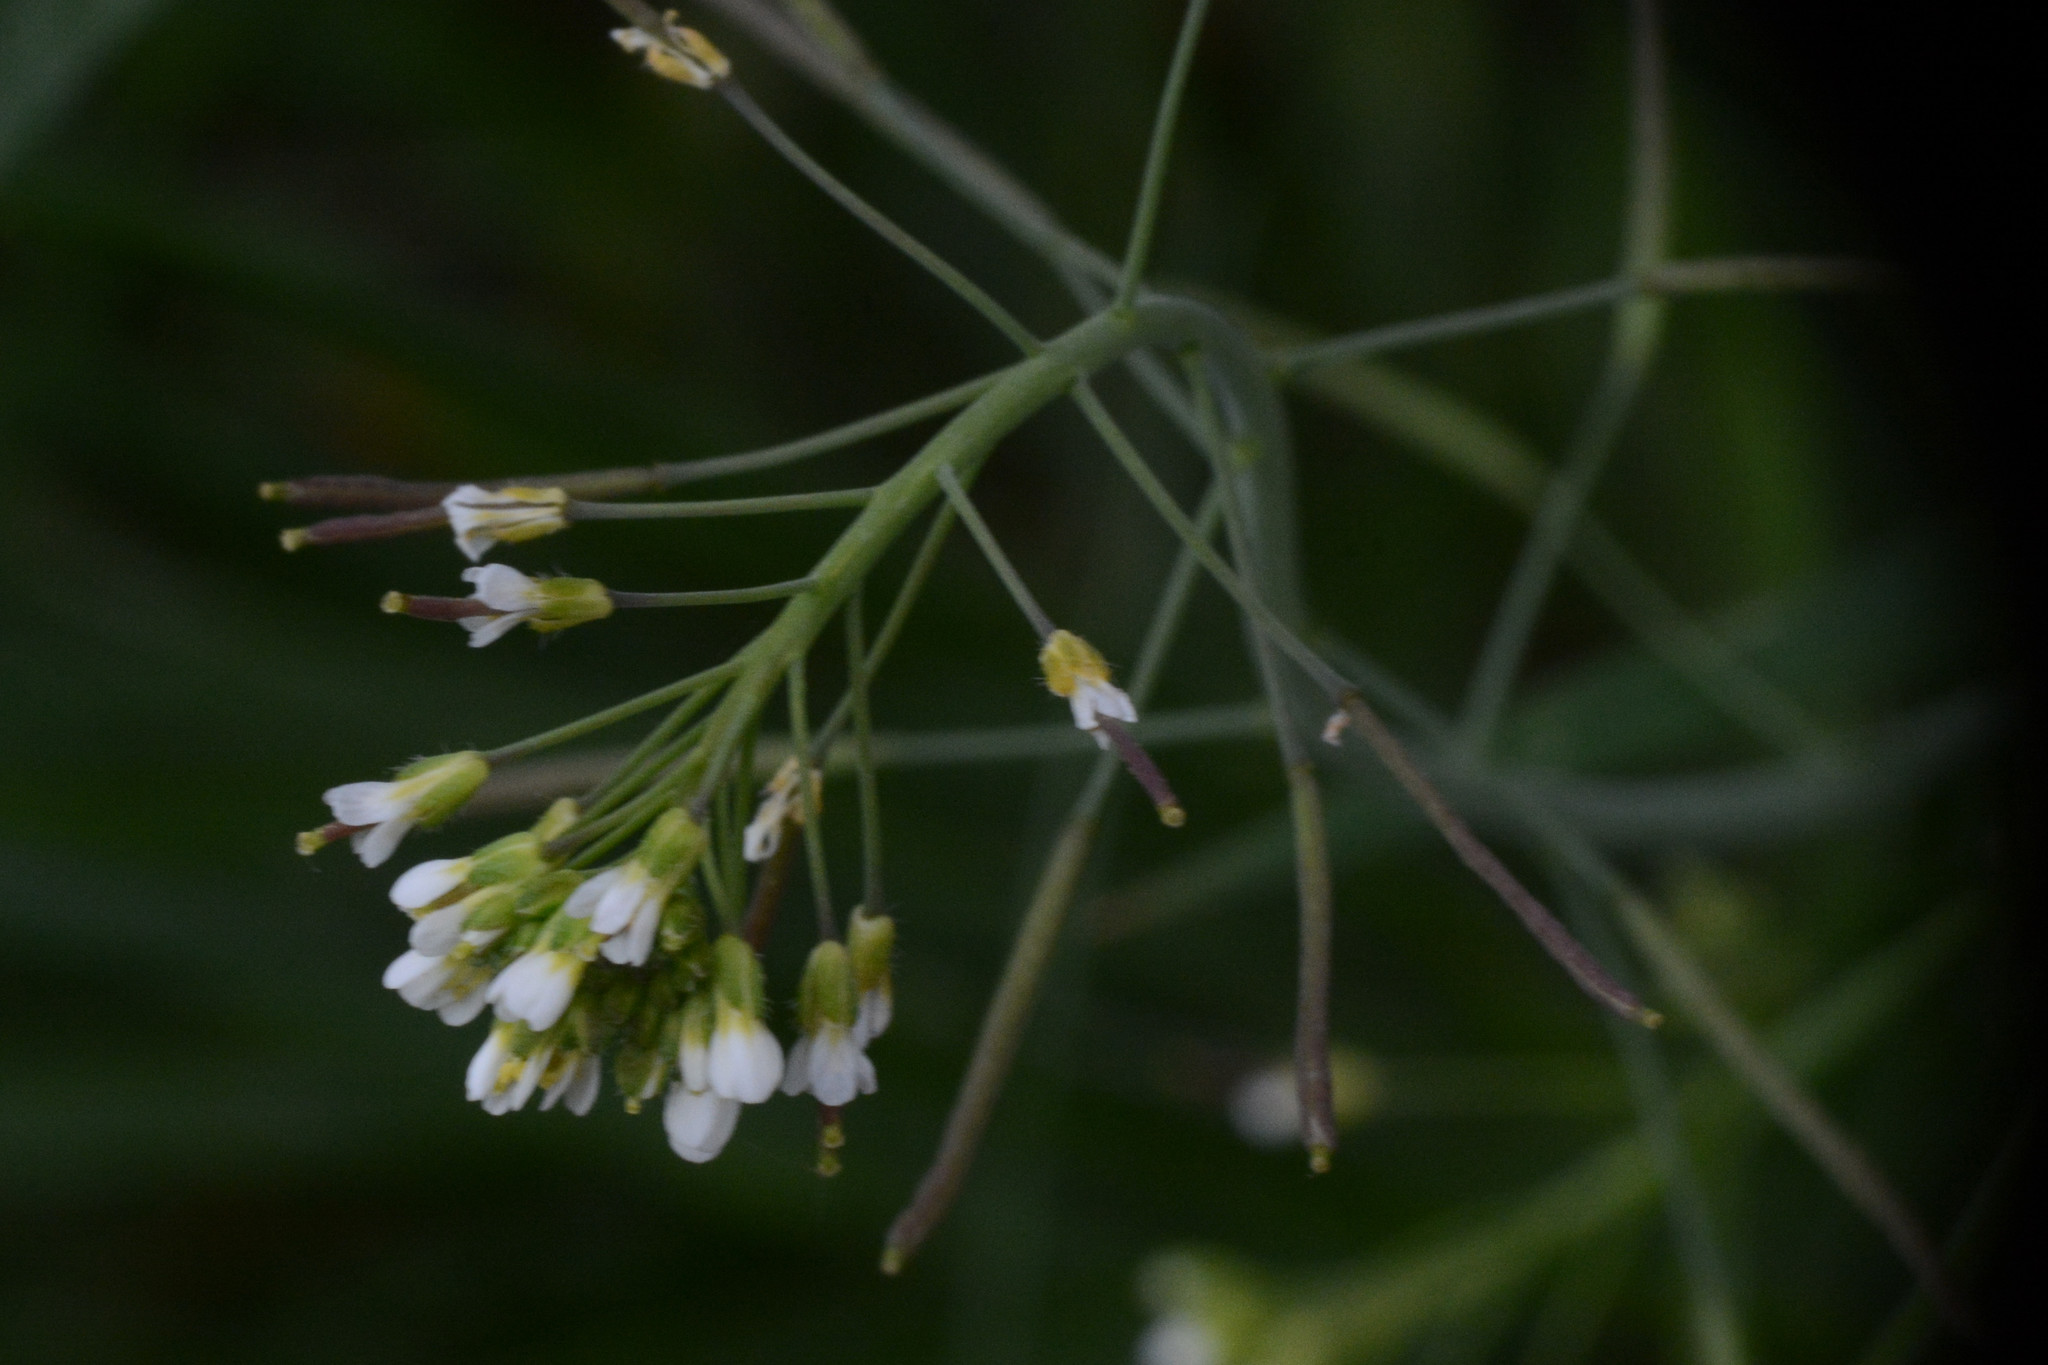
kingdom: Plantae
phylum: Tracheophyta
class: Magnoliopsida
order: Brassicales
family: Brassicaceae
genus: Arabidopsis
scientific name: Arabidopsis thaliana
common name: Thale cress
